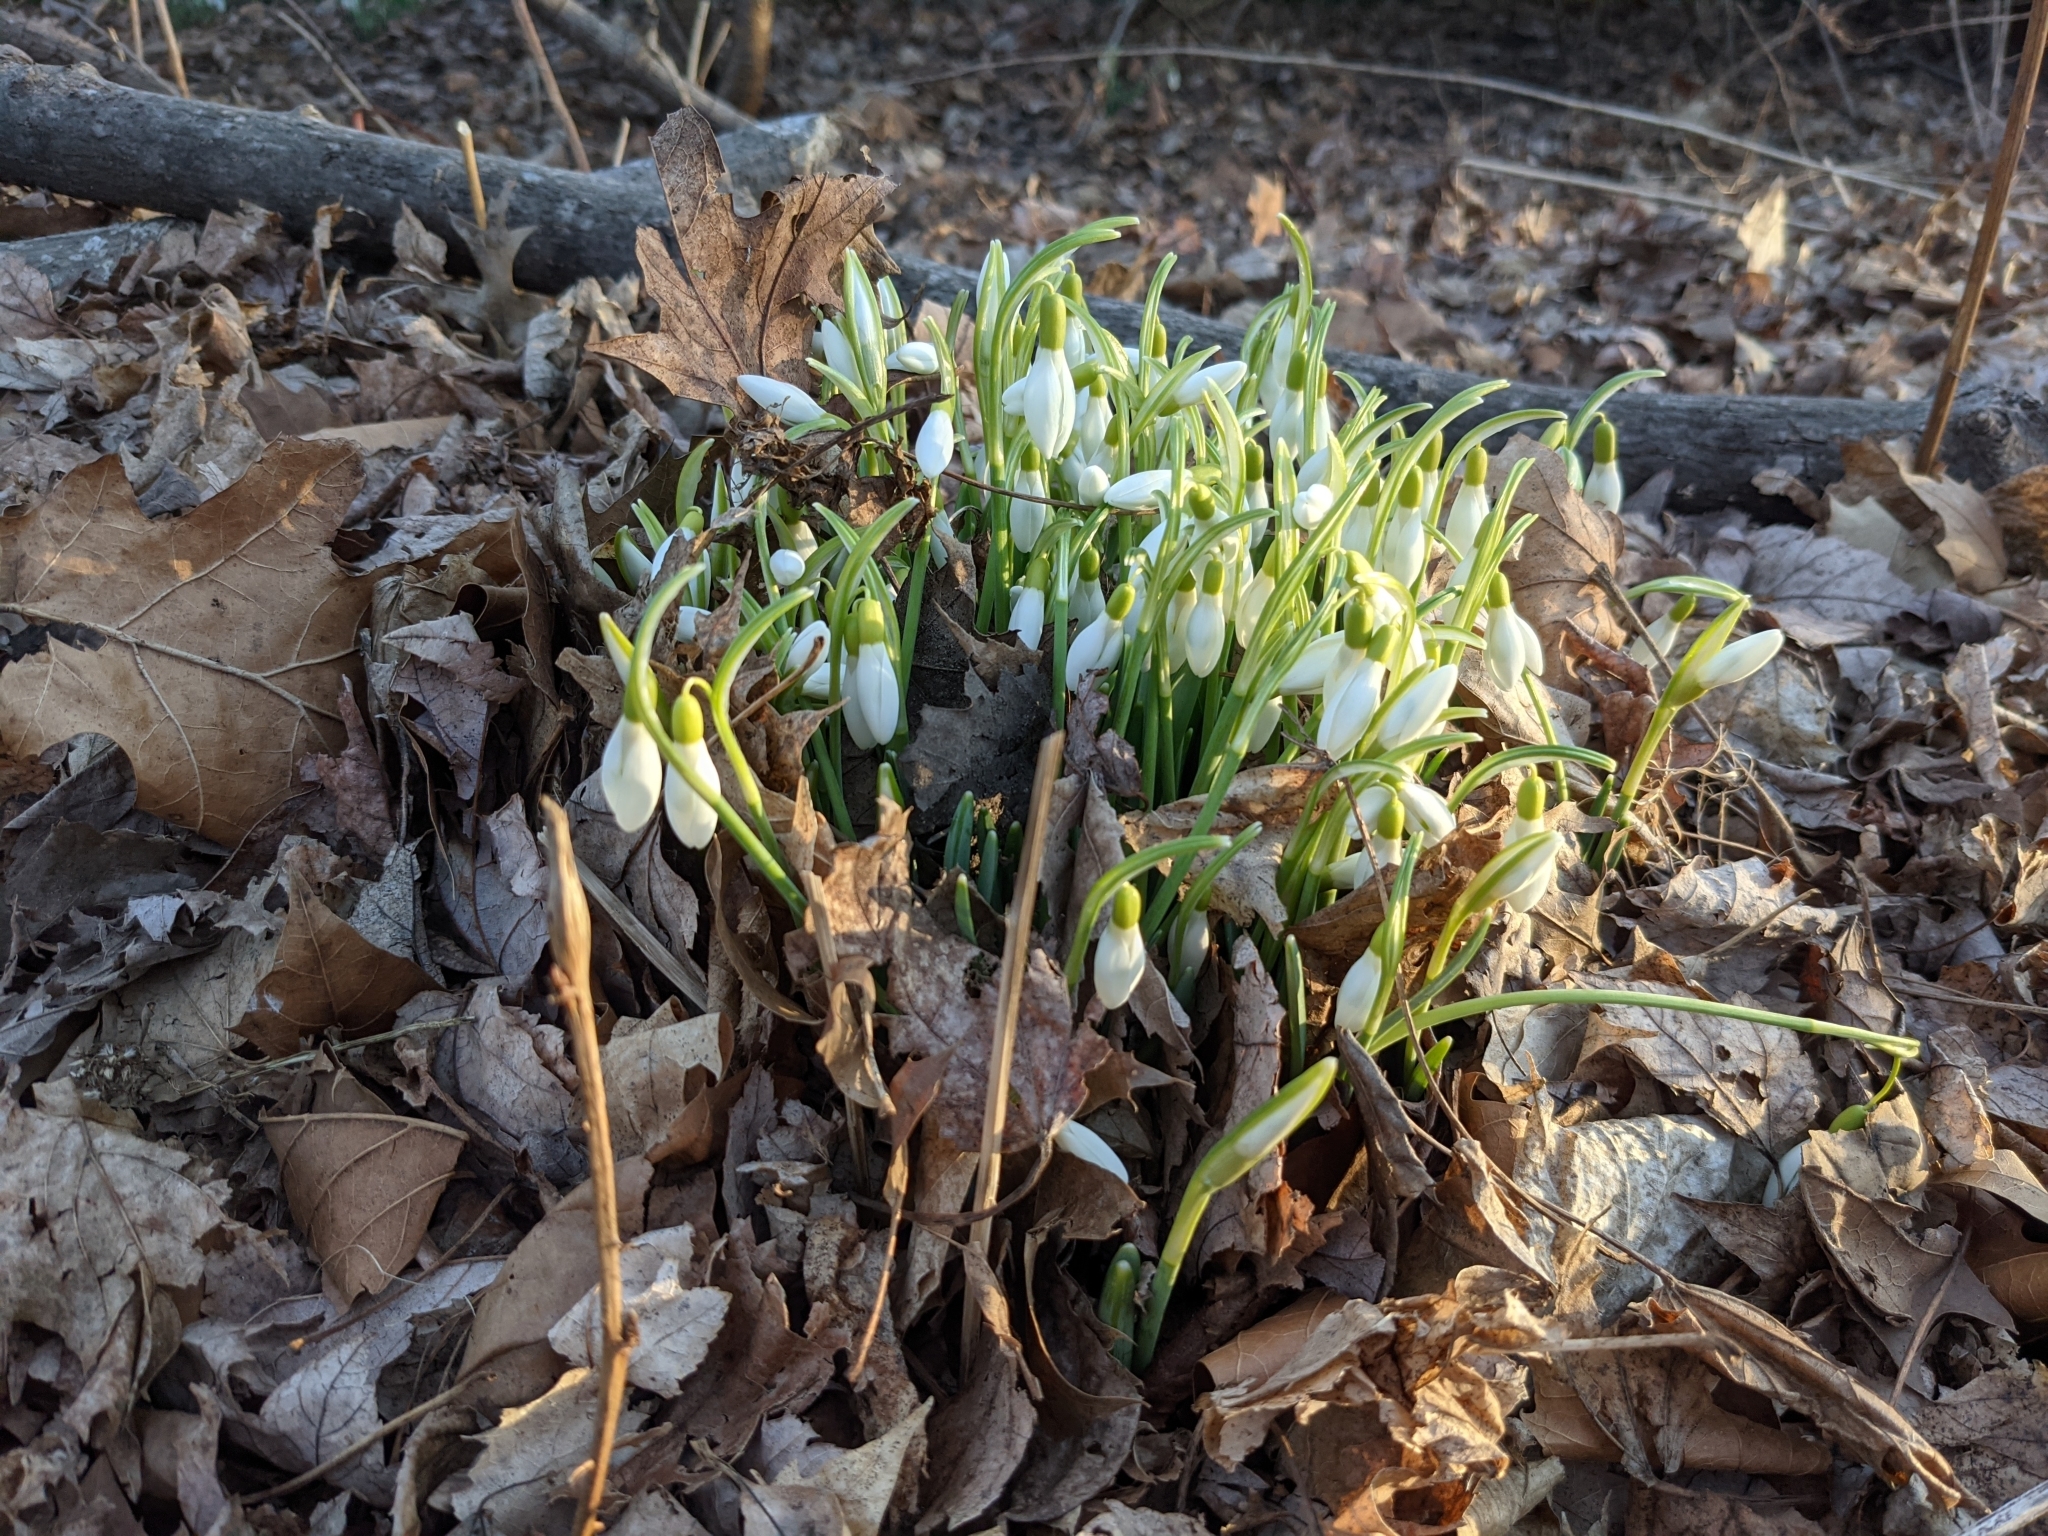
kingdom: Plantae
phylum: Tracheophyta
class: Liliopsida
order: Asparagales
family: Amaryllidaceae
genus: Galanthus
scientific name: Galanthus nivalis
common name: Snowdrop
